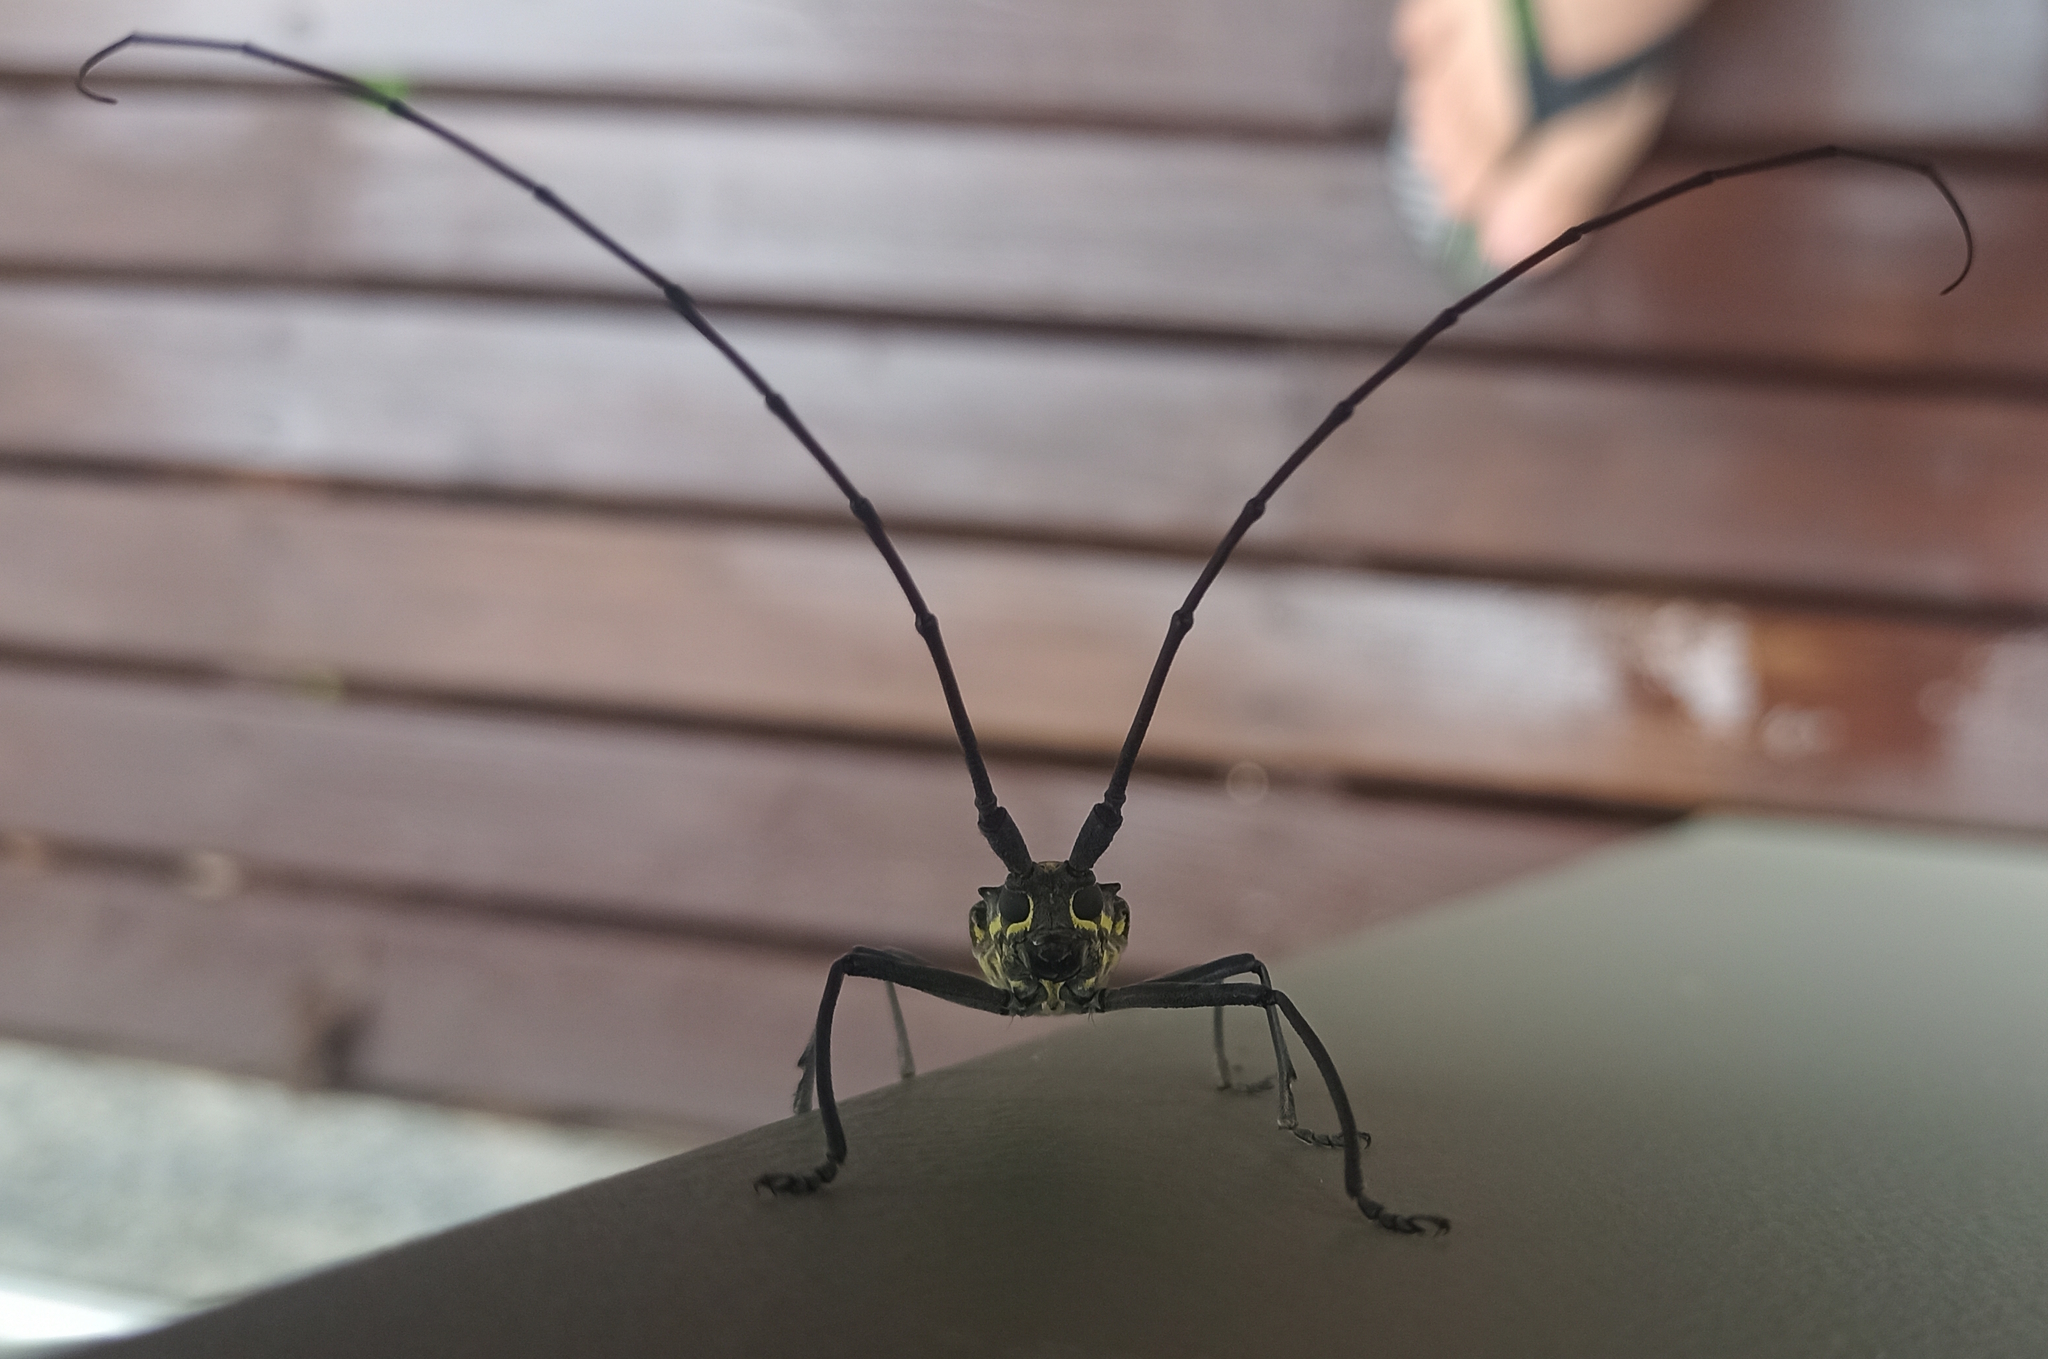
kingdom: Animalia
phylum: Arthropoda
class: Insecta
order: Coleoptera
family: Cerambycidae
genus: Taeniotes
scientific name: Taeniotes amazonum
